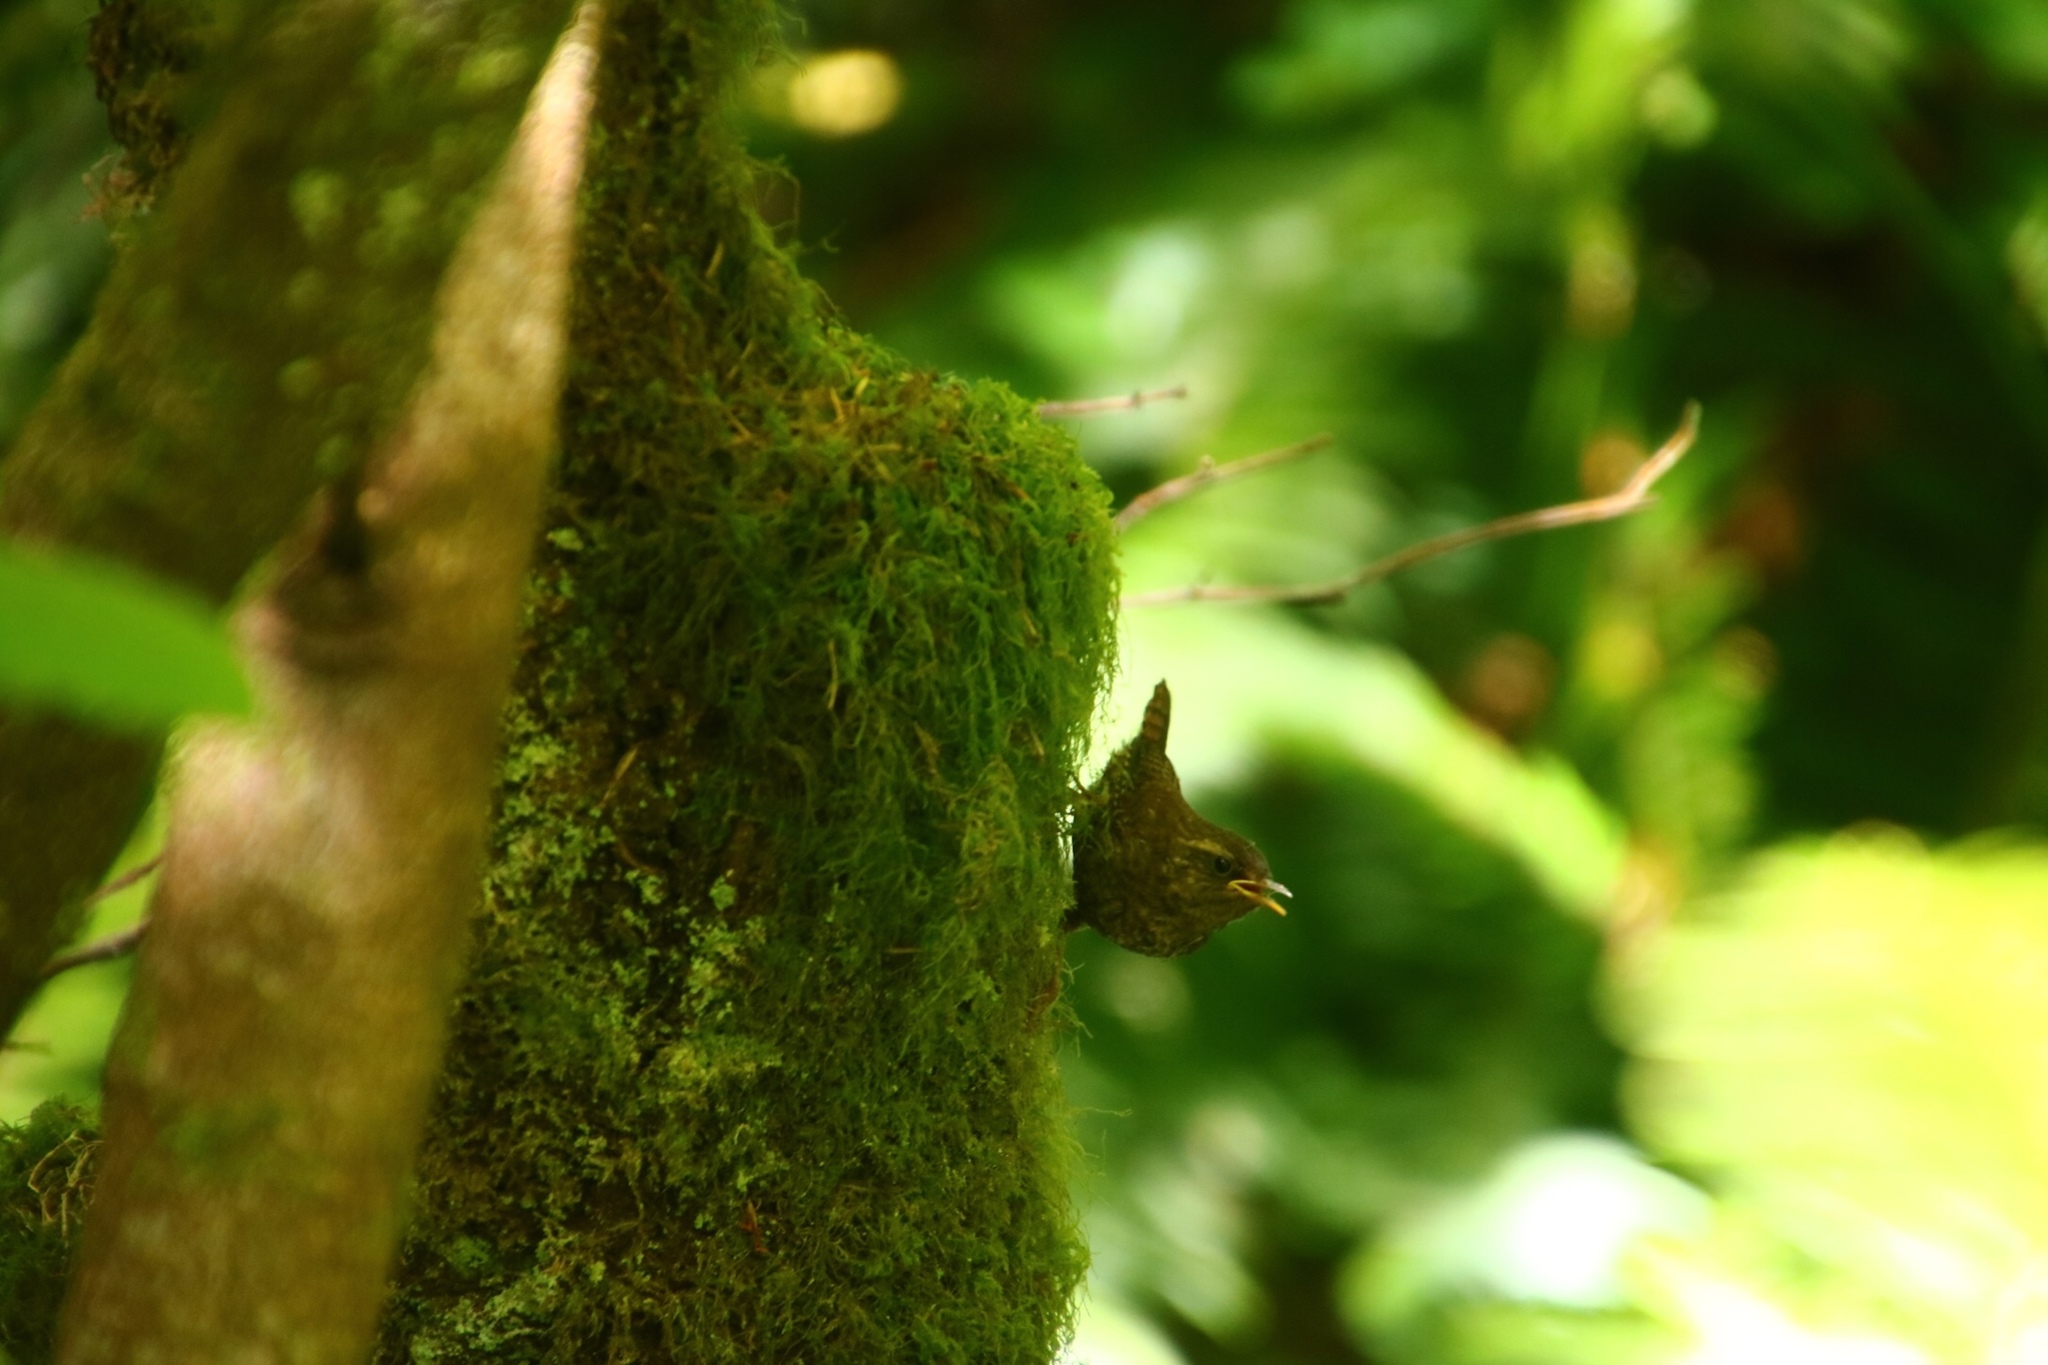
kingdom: Animalia
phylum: Chordata
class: Aves
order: Passeriformes
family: Troglodytidae
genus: Troglodytes
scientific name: Troglodytes pacificus
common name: Pacific wren
